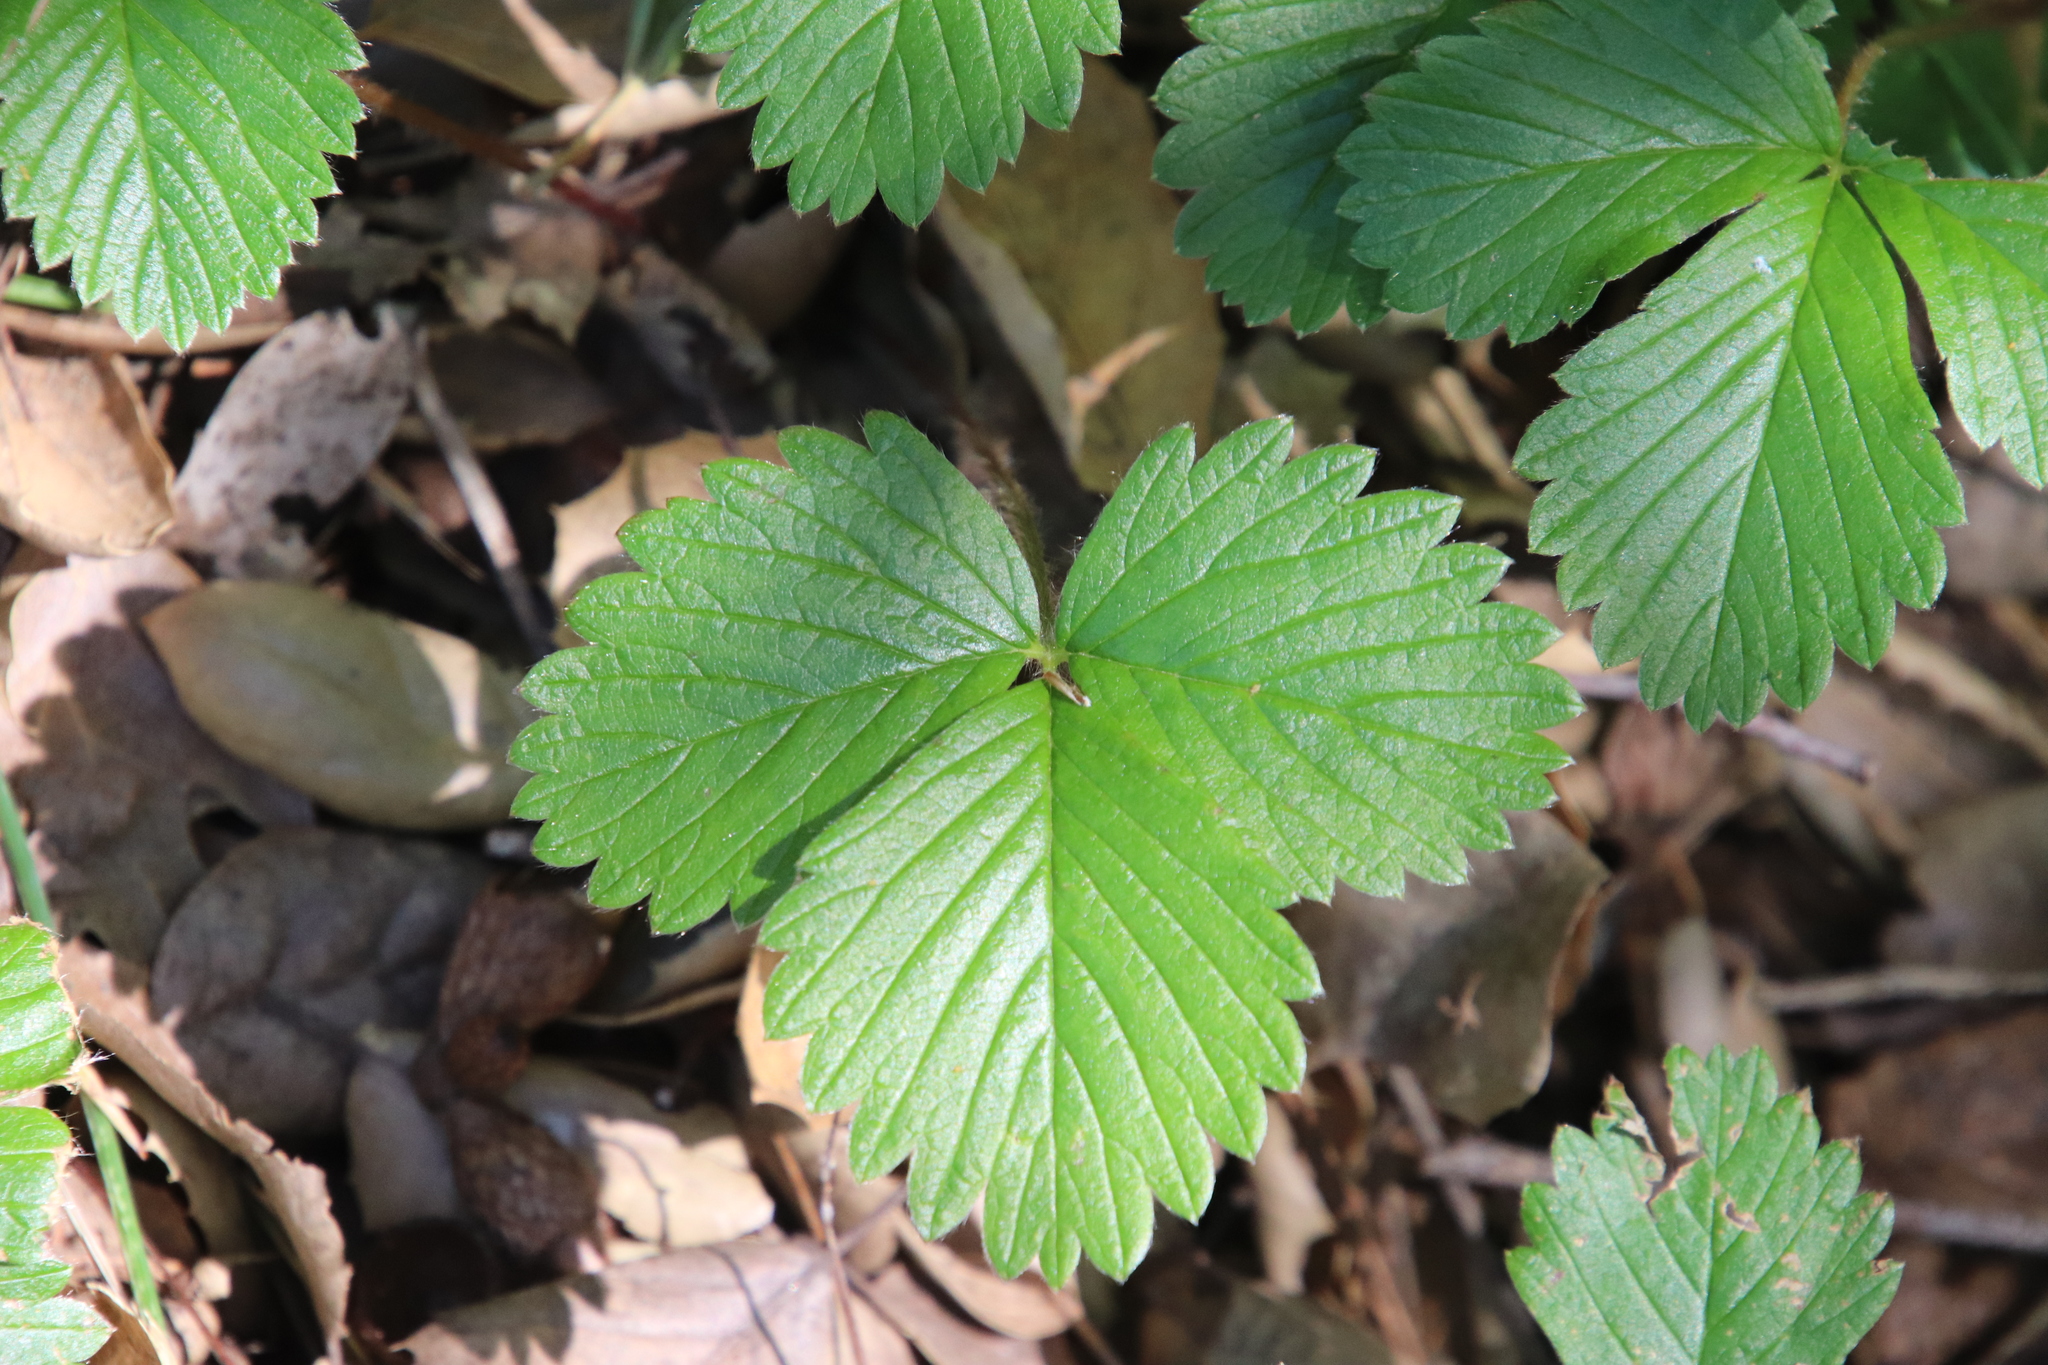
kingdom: Plantae
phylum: Tracheophyta
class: Magnoliopsida
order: Rosales
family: Rosaceae
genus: Fragaria
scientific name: Fragaria vesca
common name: Wild strawberry
